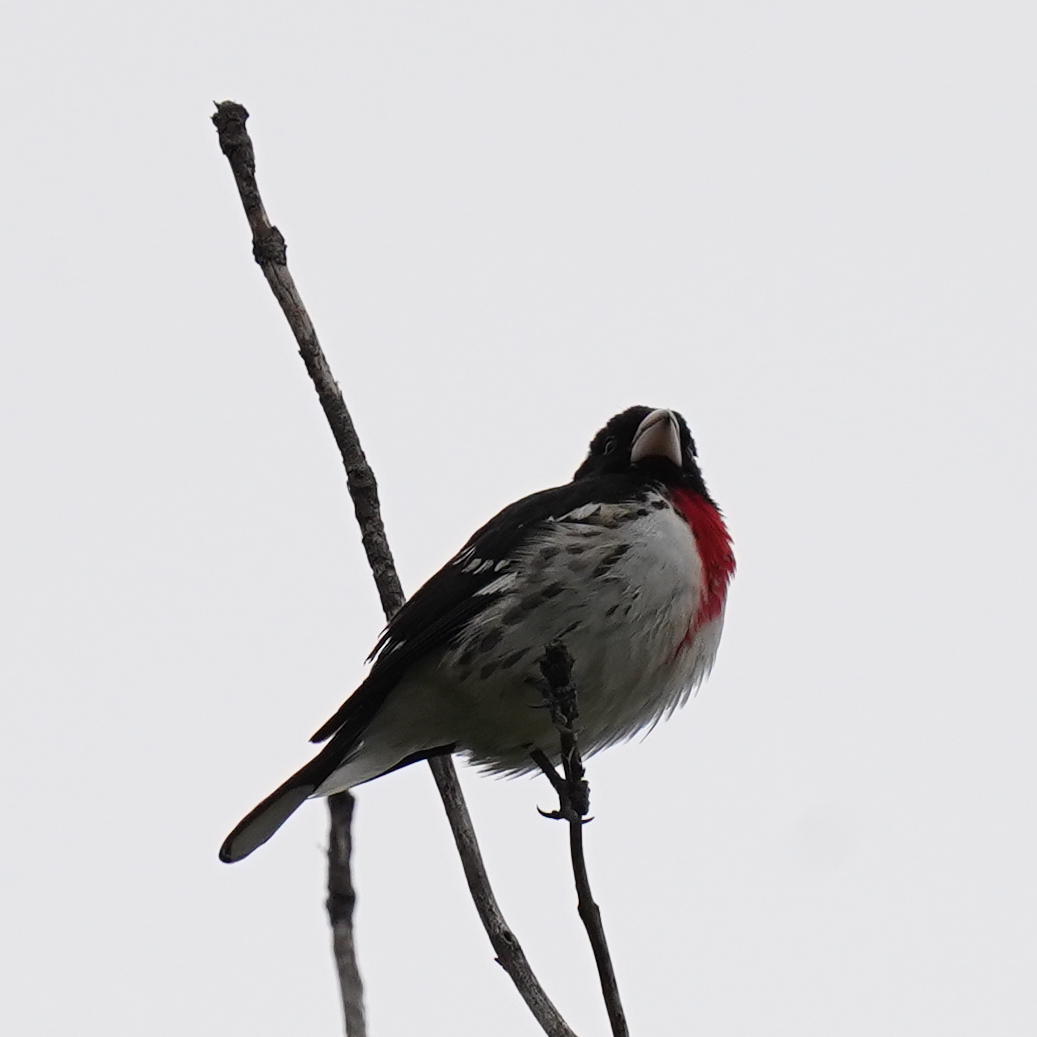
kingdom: Animalia
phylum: Chordata
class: Aves
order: Passeriformes
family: Cardinalidae
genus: Pheucticus
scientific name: Pheucticus ludovicianus
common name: Rose-breasted grosbeak
